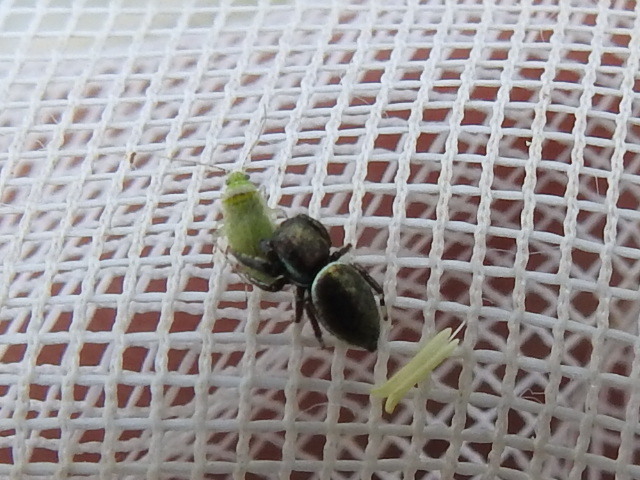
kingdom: Animalia
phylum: Arthropoda
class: Arachnida
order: Araneae
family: Salticidae
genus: Sassacus
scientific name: Sassacus papenhoei
